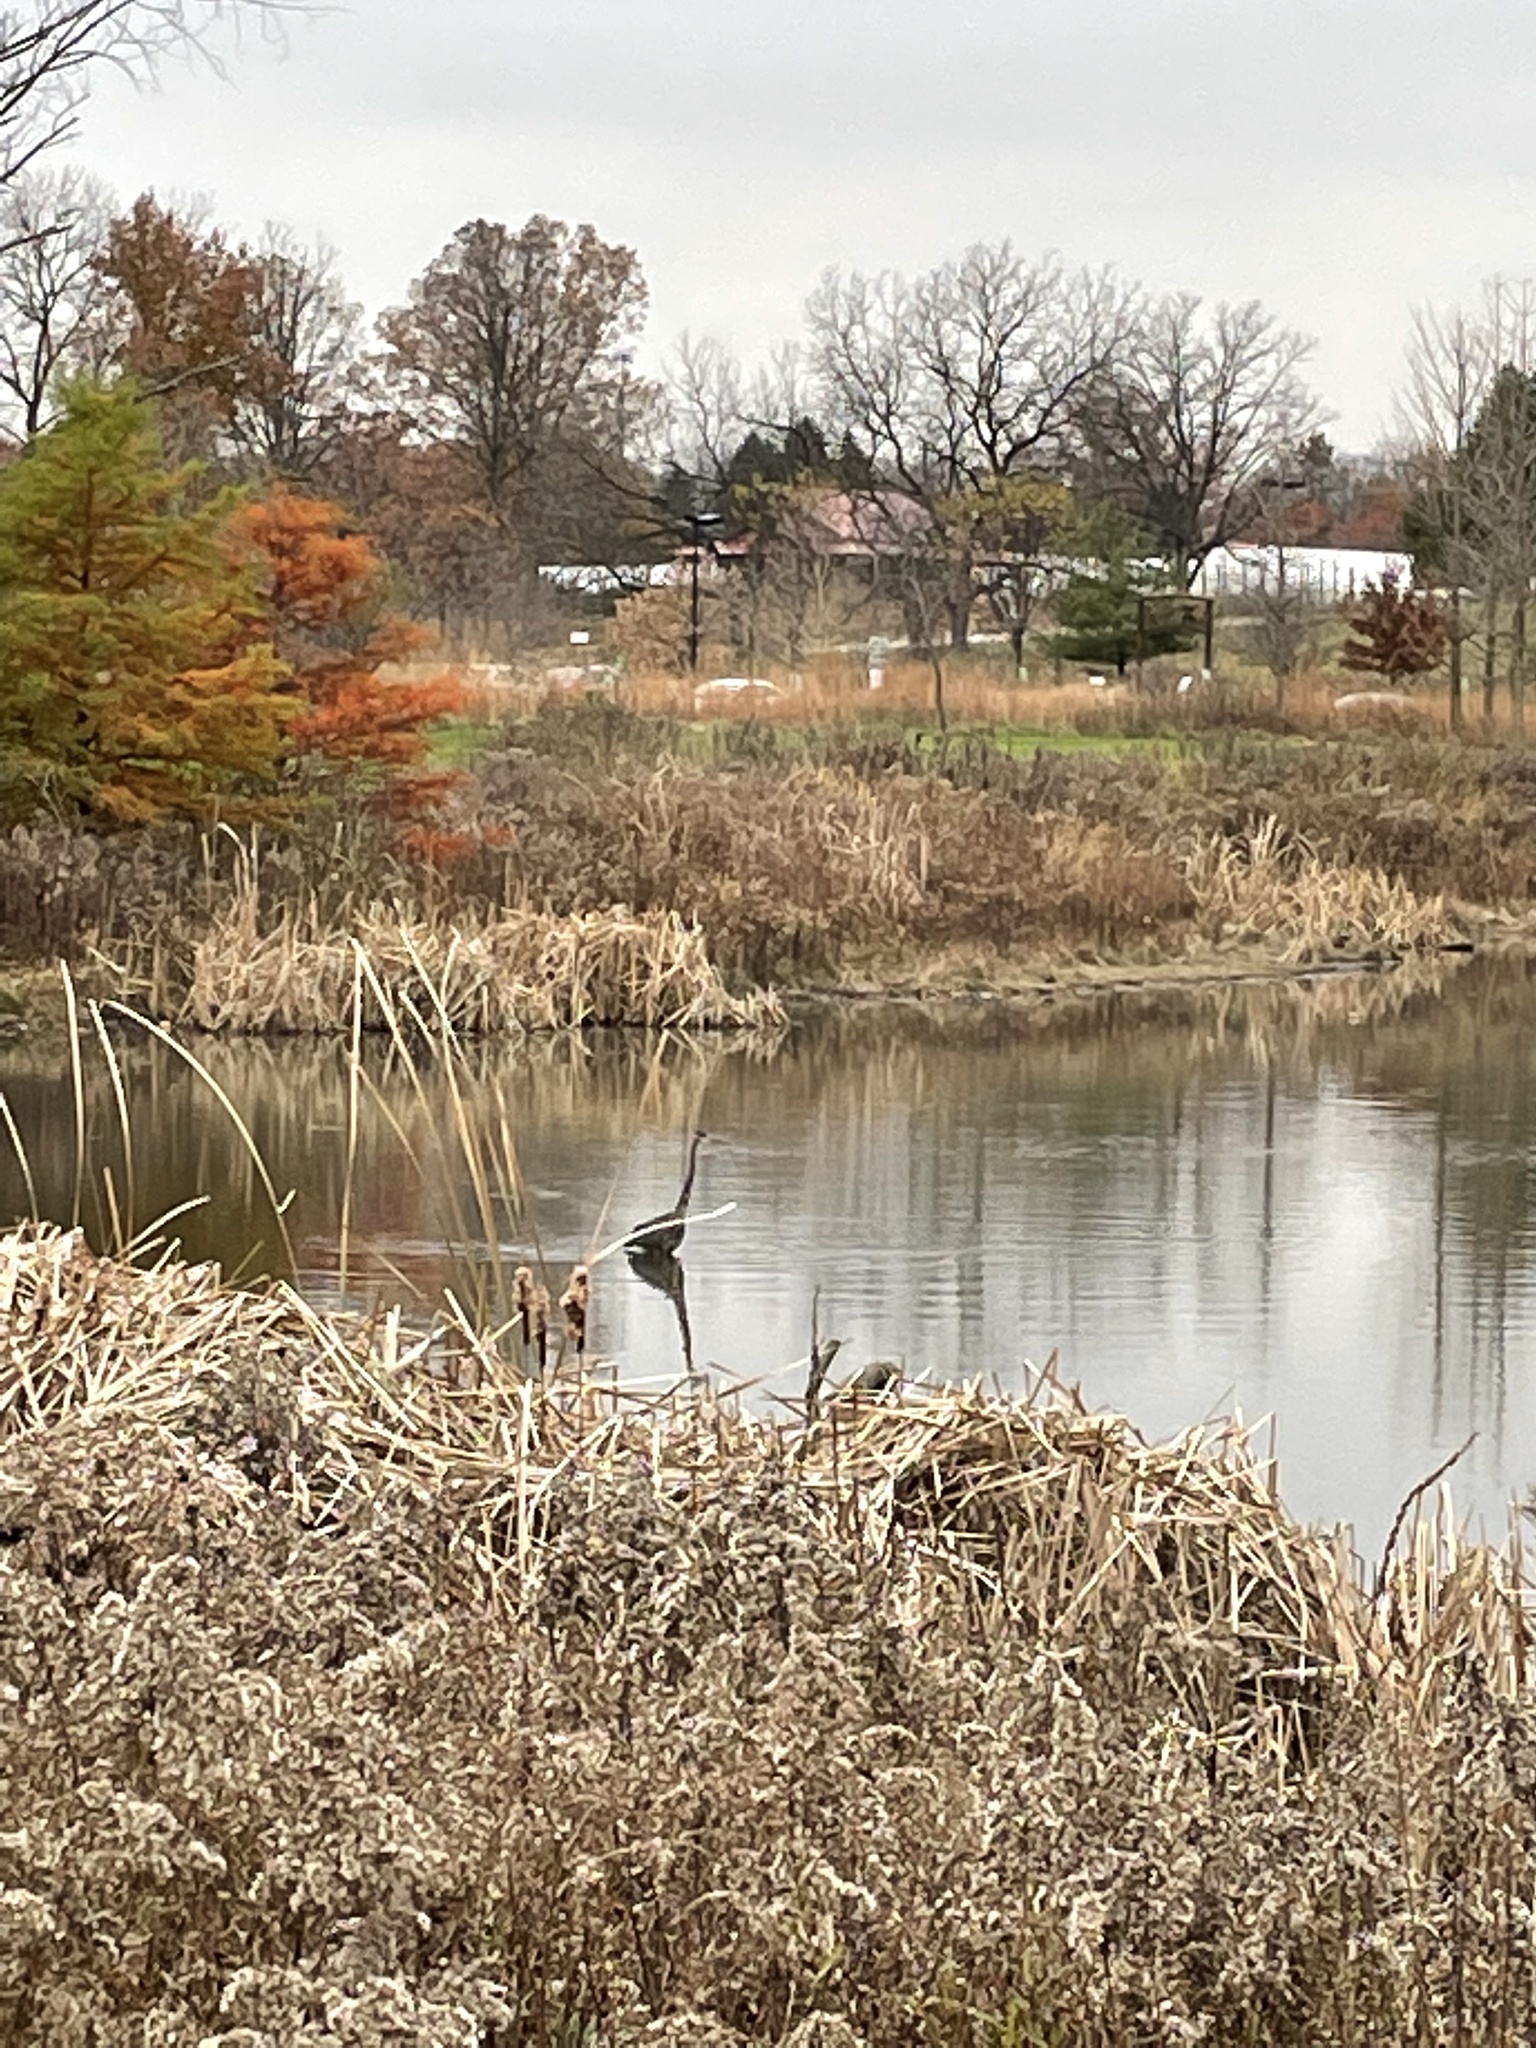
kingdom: Animalia
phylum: Chordata
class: Aves
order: Pelecaniformes
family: Ardeidae
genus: Ardea
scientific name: Ardea herodias
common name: Great blue heron
